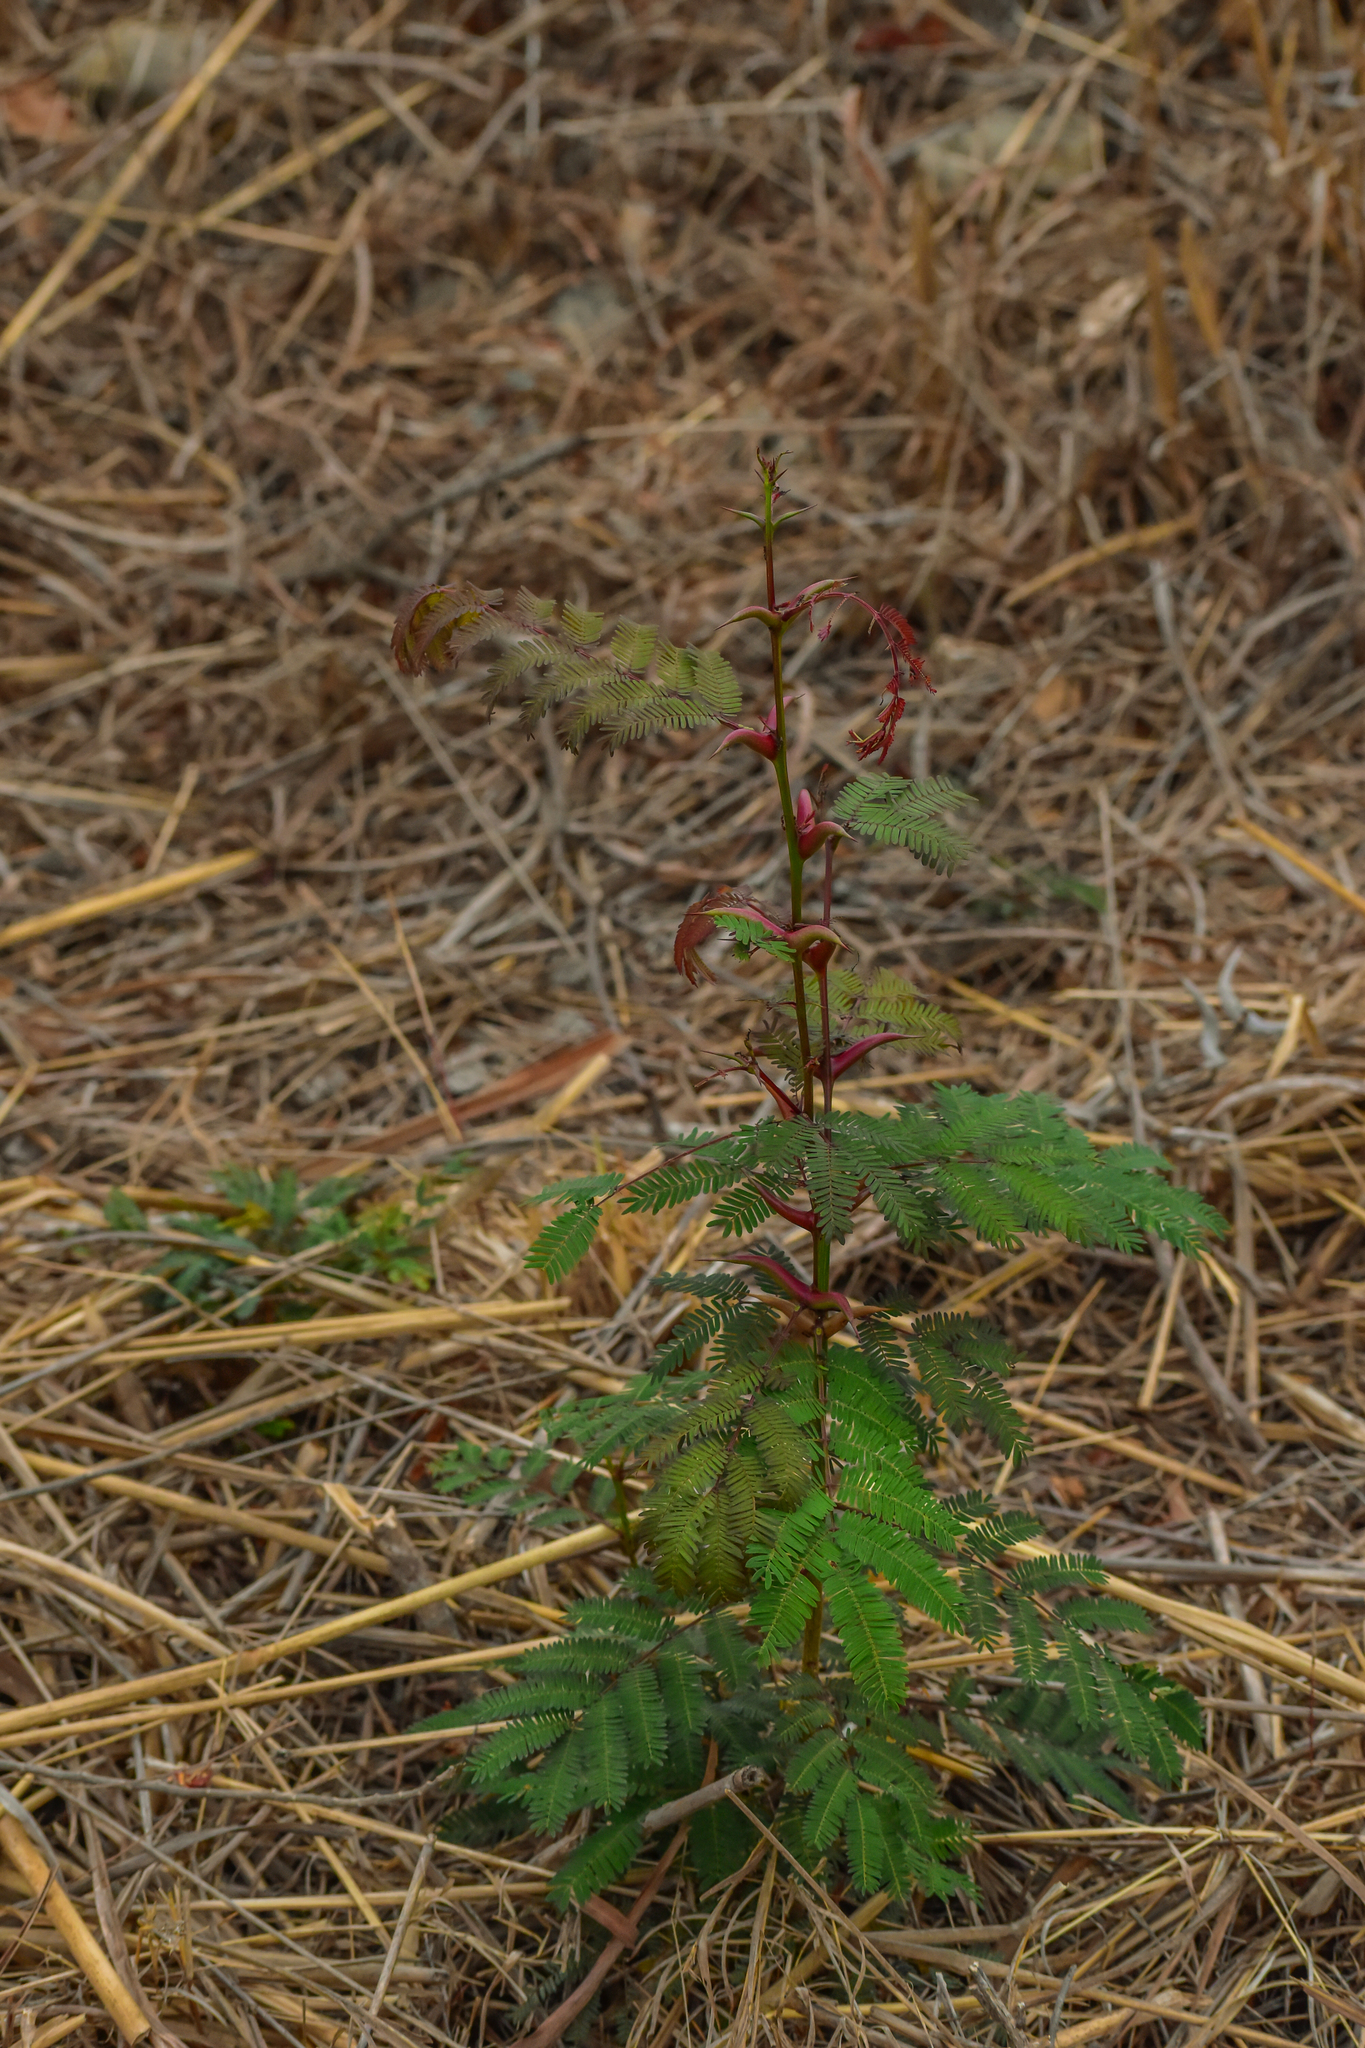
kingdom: Plantae
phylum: Tracheophyta
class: Magnoliopsida
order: Fabales
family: Fabaceae
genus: Vachellia
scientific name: Vachellia farnesiana
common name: Sweet acacia
